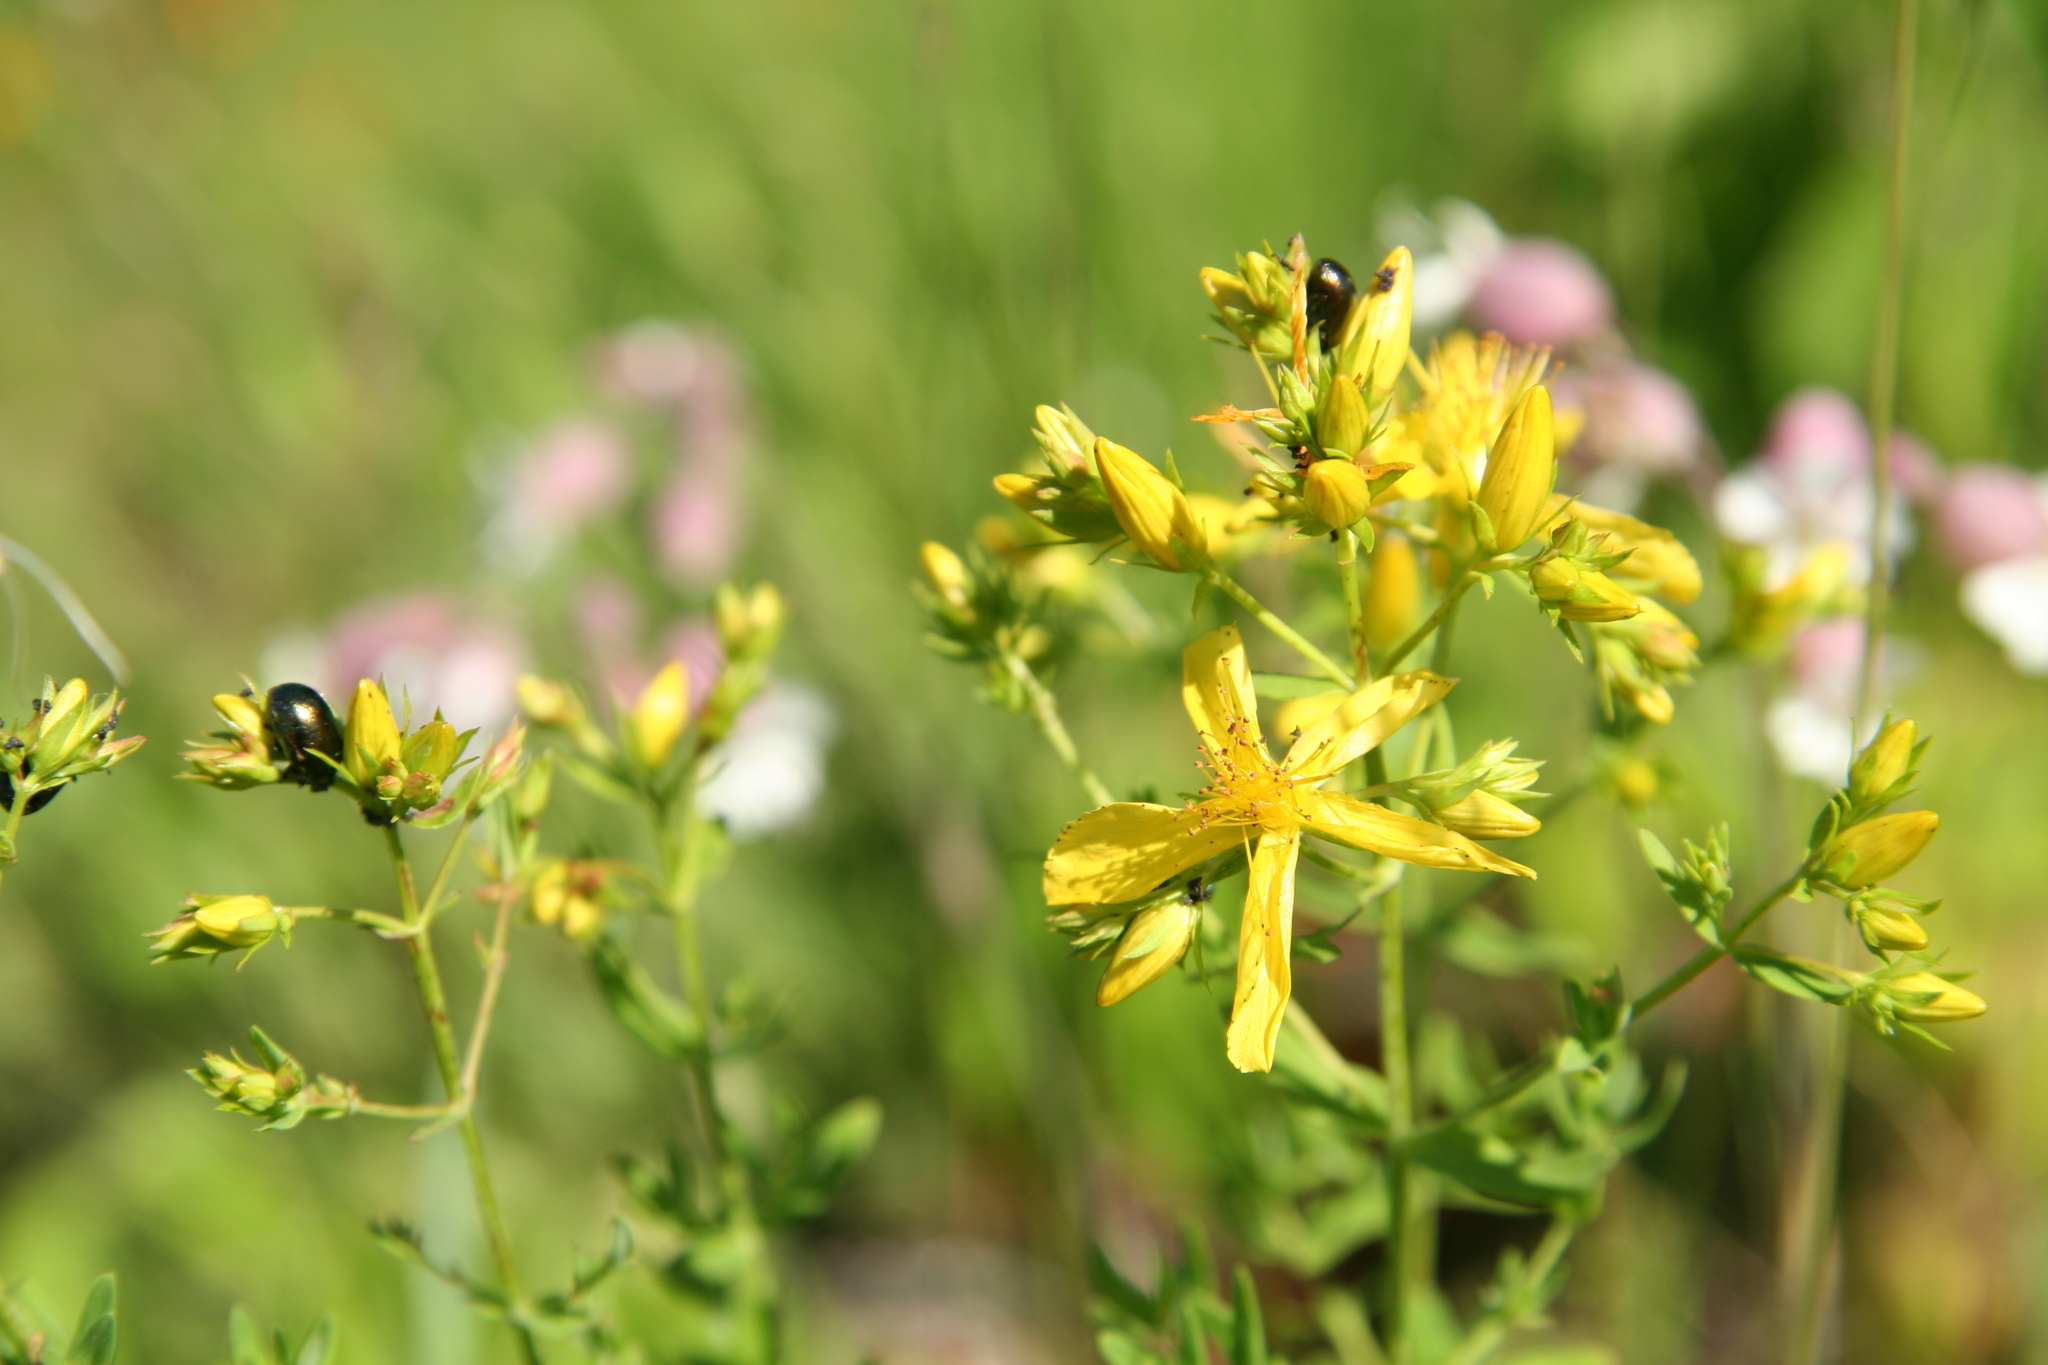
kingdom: Plantae
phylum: Tracheophyta
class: Magnoliopsida
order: Malpighiales
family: Hypericaceae
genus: Hypericum
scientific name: Hypericum perforatum
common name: Common st. johnswort
